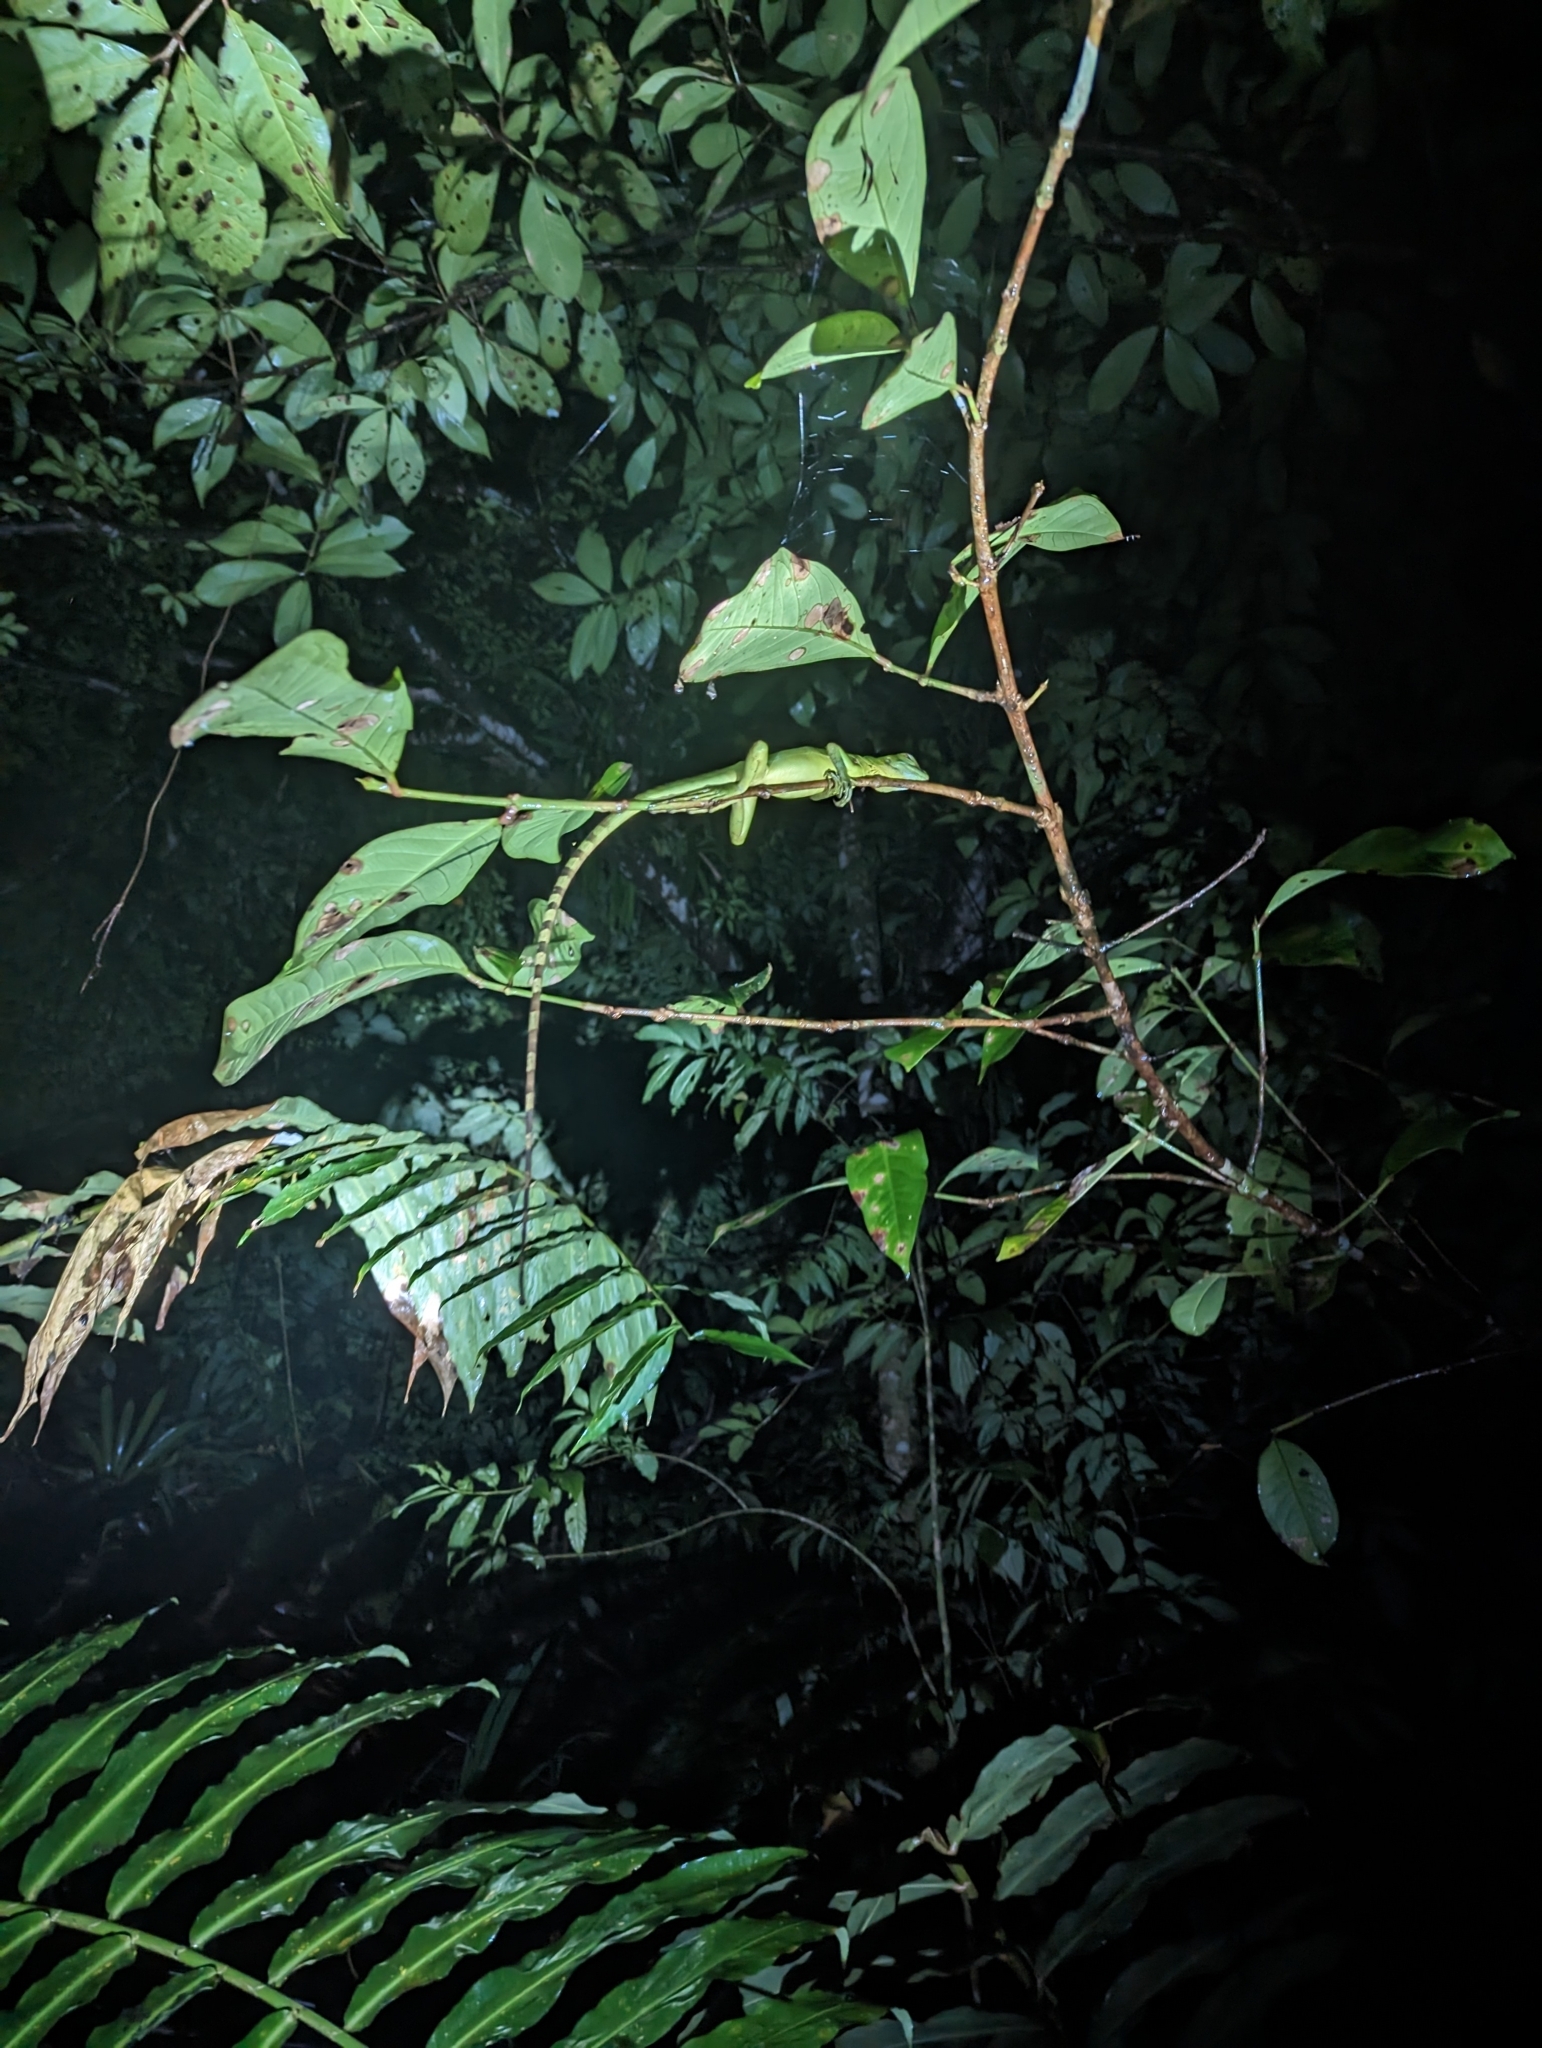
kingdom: Animalia
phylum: Chordata
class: Squamata
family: Corytophanidae
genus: Basiliscus
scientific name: Basiliscus plumifrons
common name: Green basilisk
